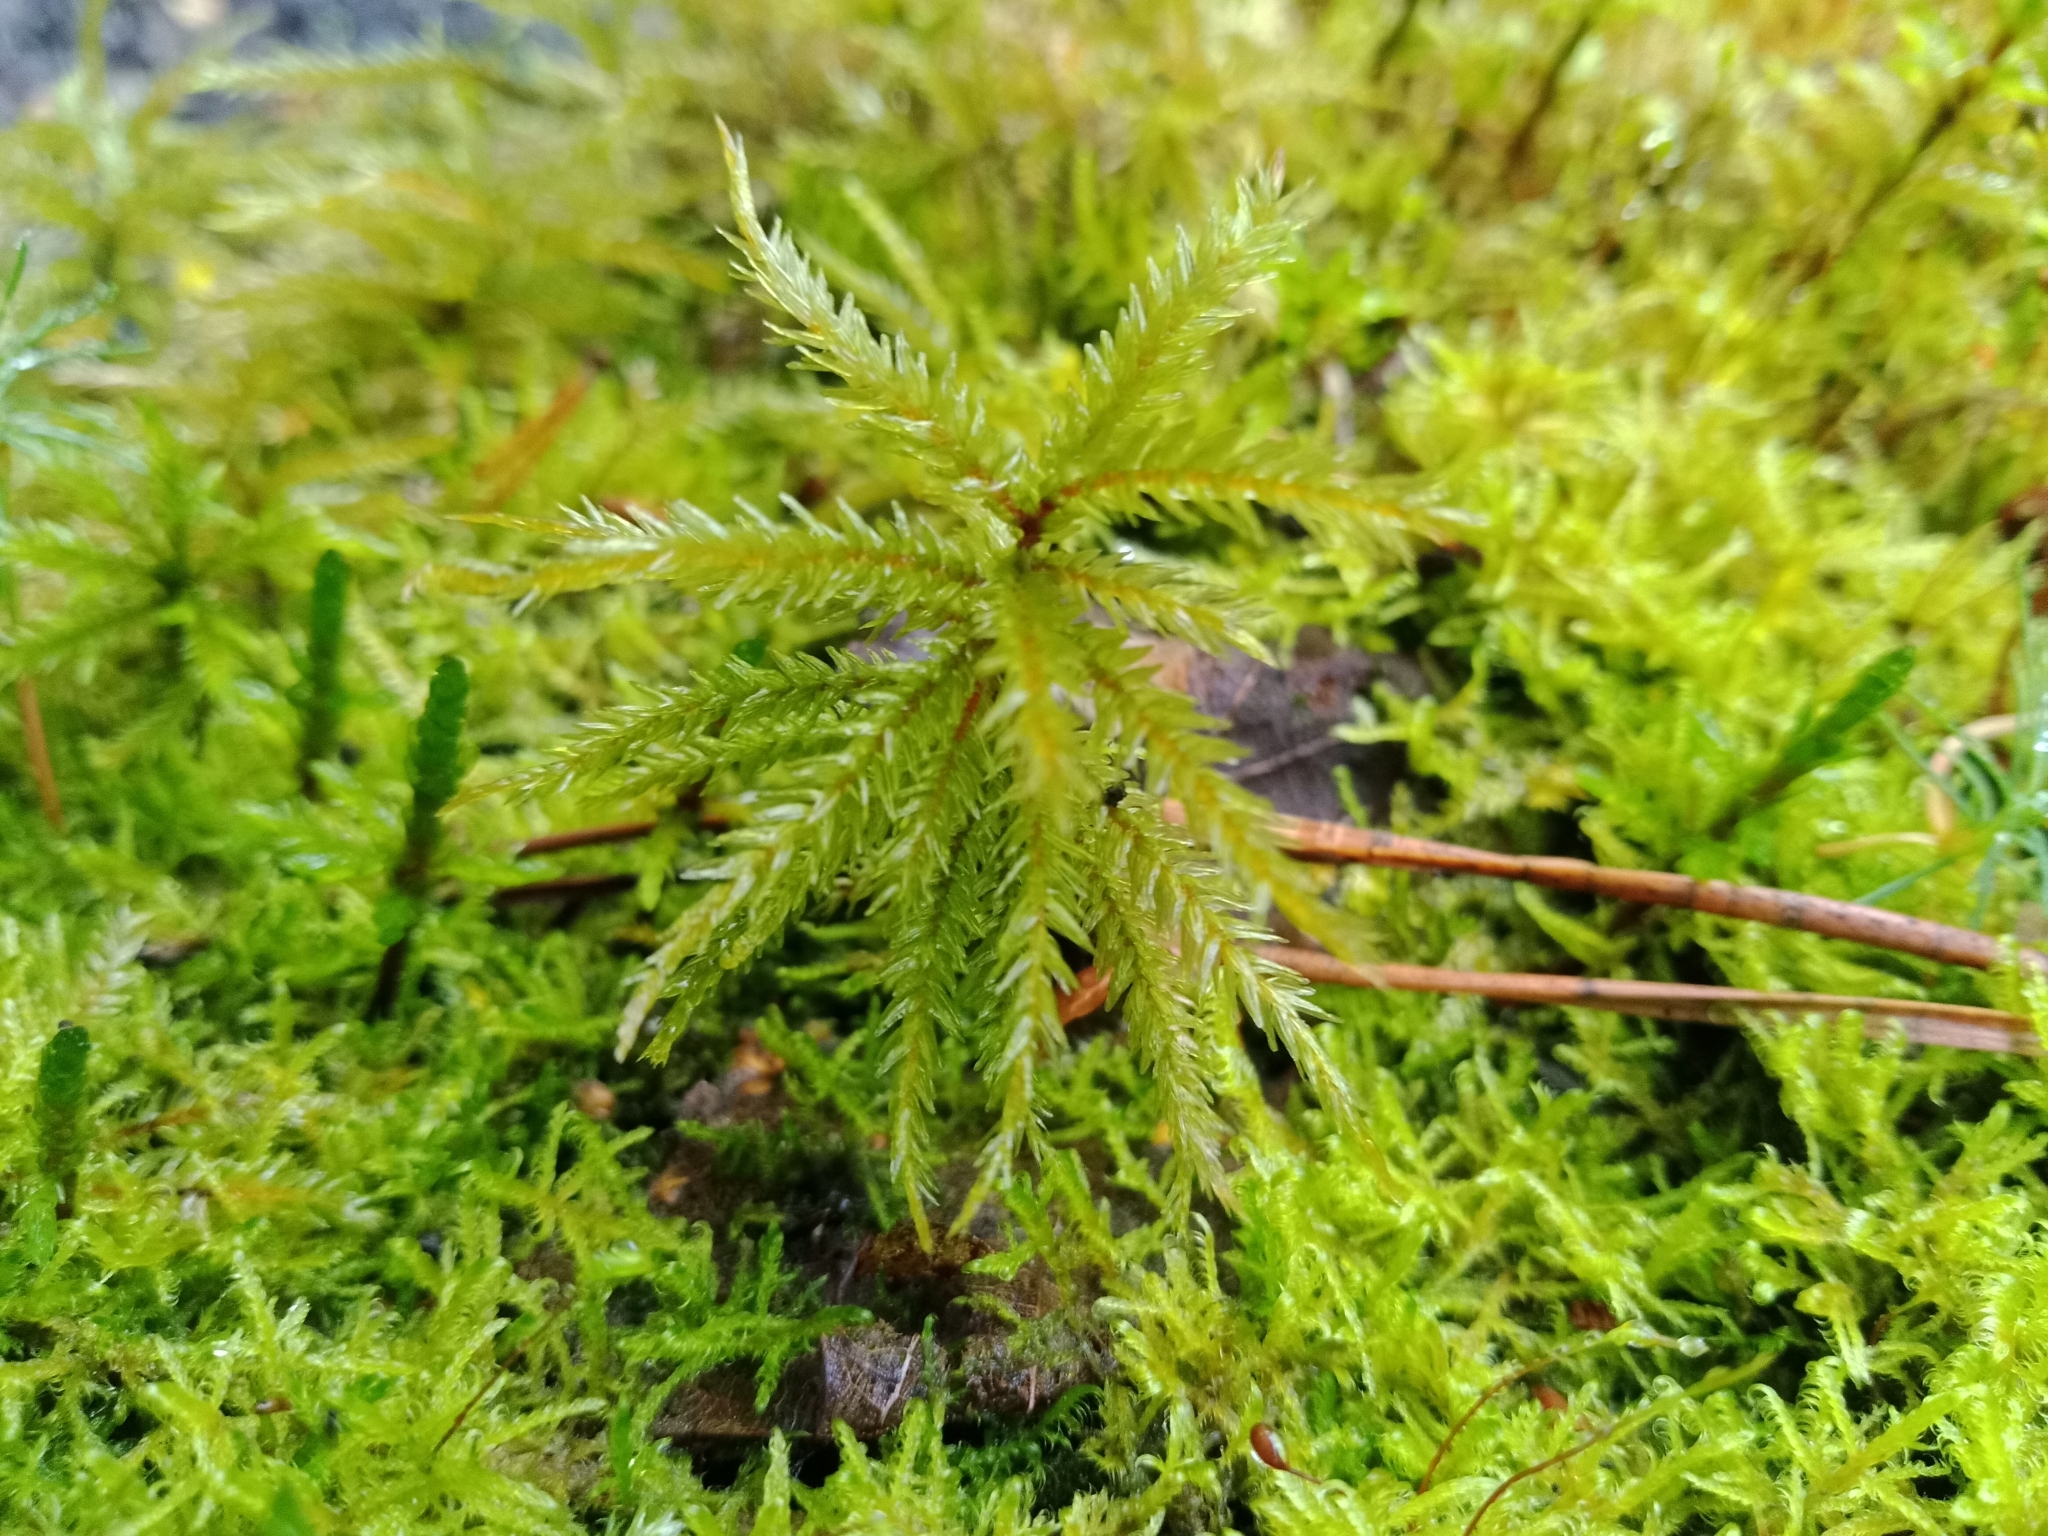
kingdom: Plantae
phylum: Bryophyta
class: Bryopsida
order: Hypnales
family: Climaciaceae
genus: Climacium
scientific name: Climacium dendroides
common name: Northern tree moss
